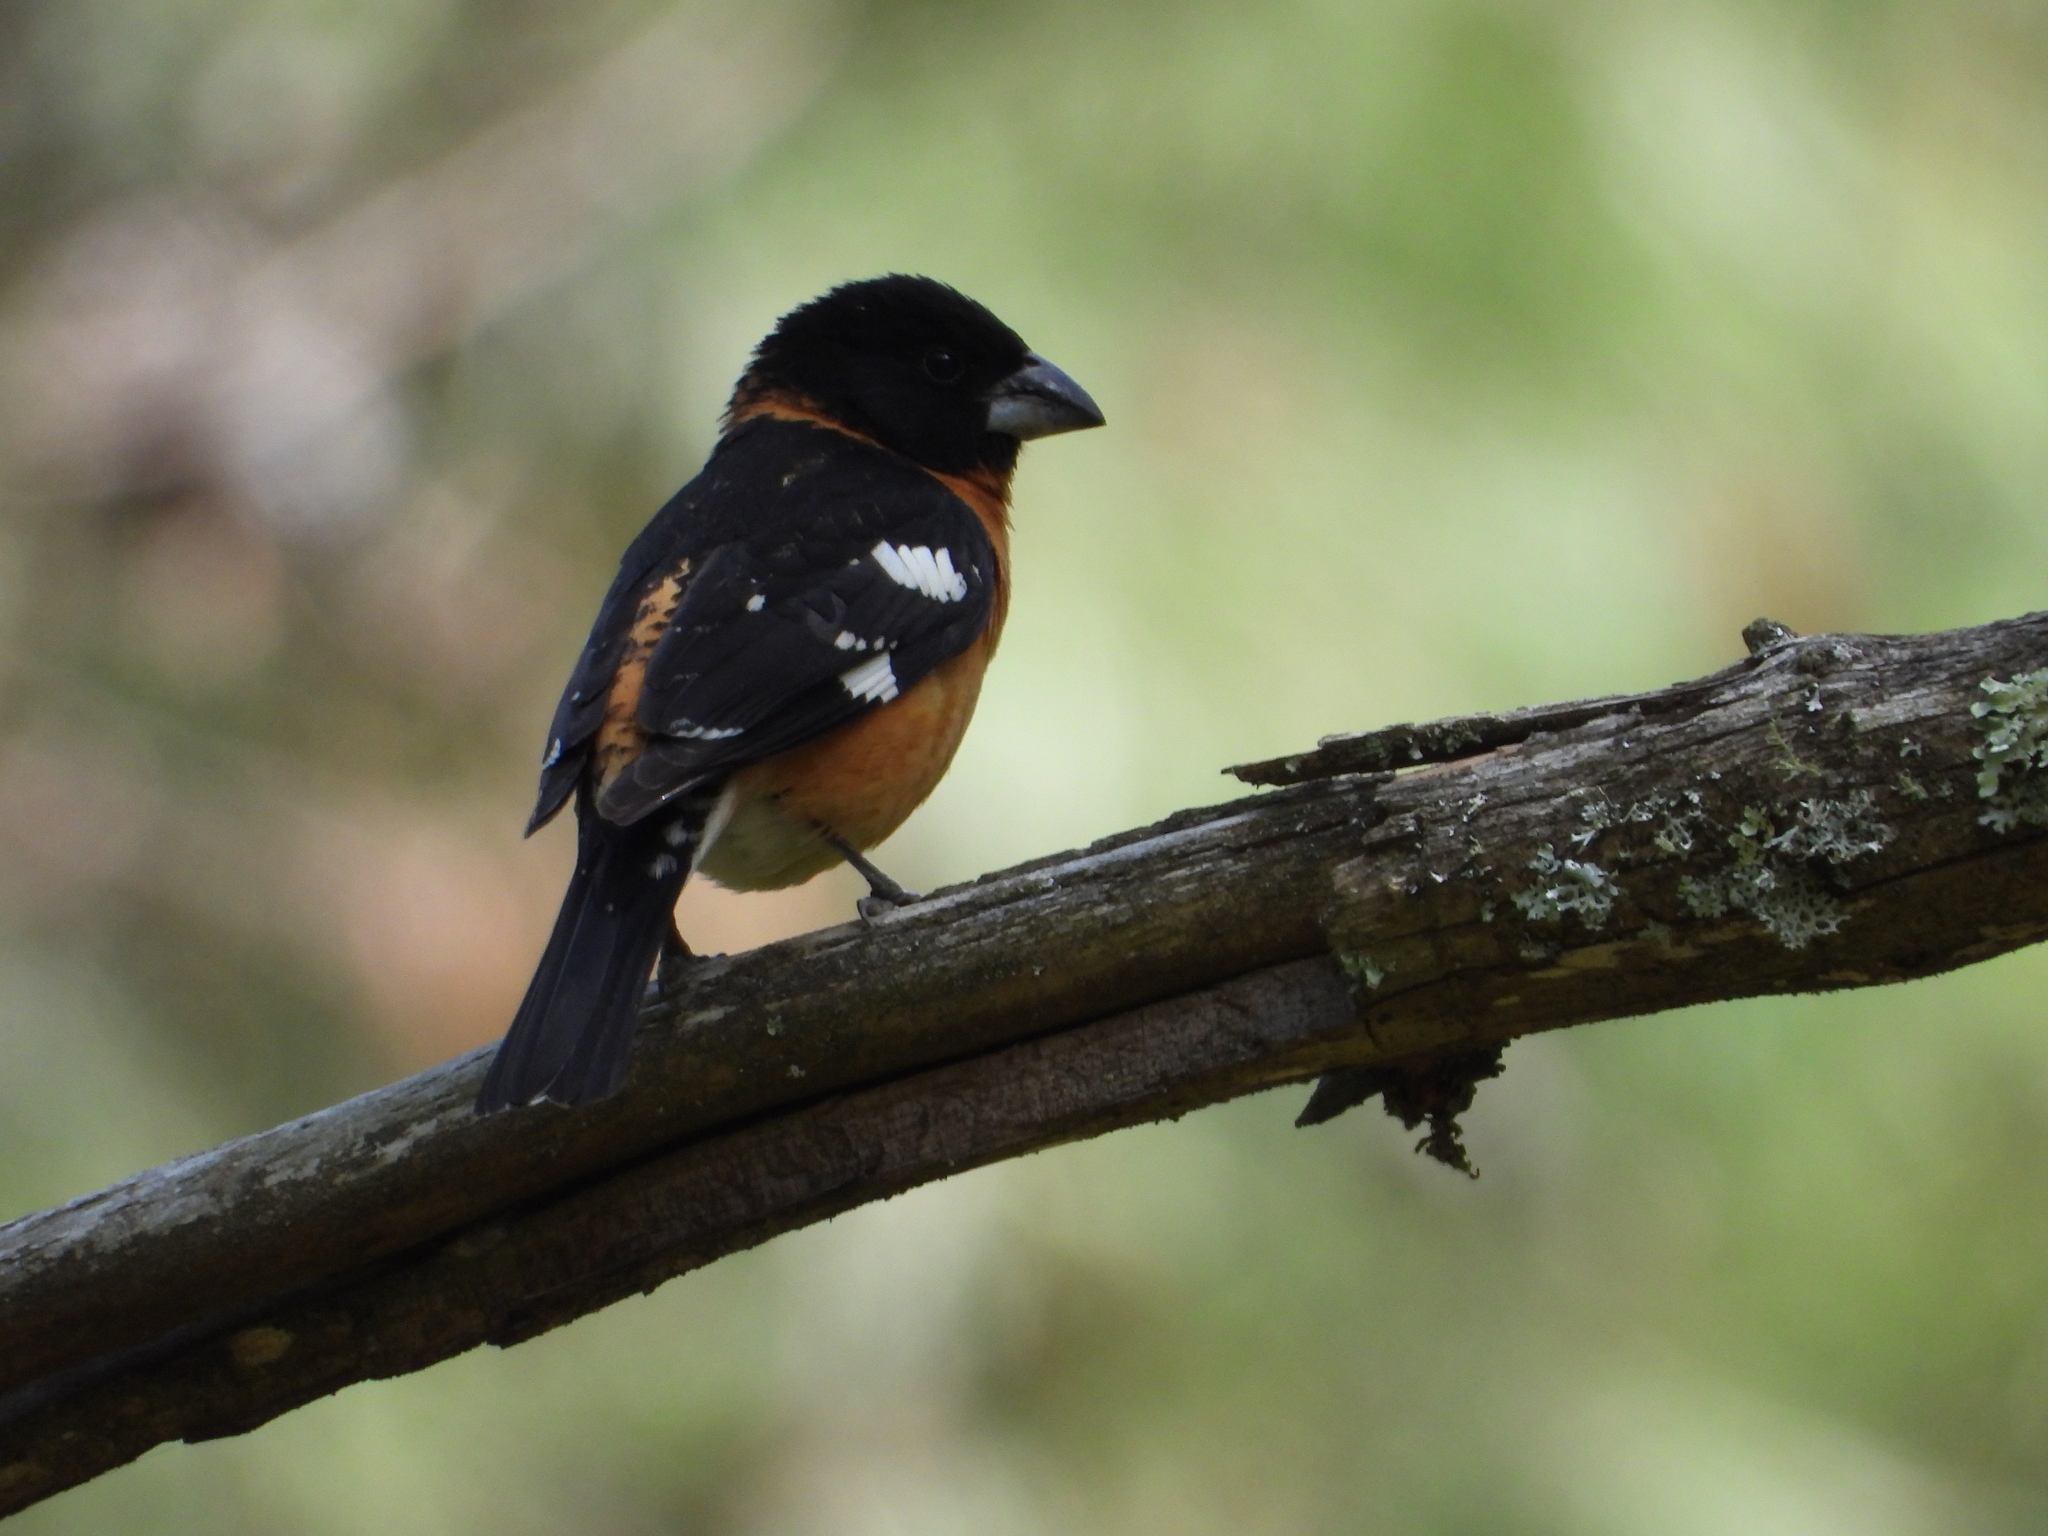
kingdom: Animalia
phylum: Chordata
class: Aves
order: Passeriformes
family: Cardinalidae
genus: Pheucticus
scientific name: Pheucticus melanocephalus
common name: Black-headed grosbeak
